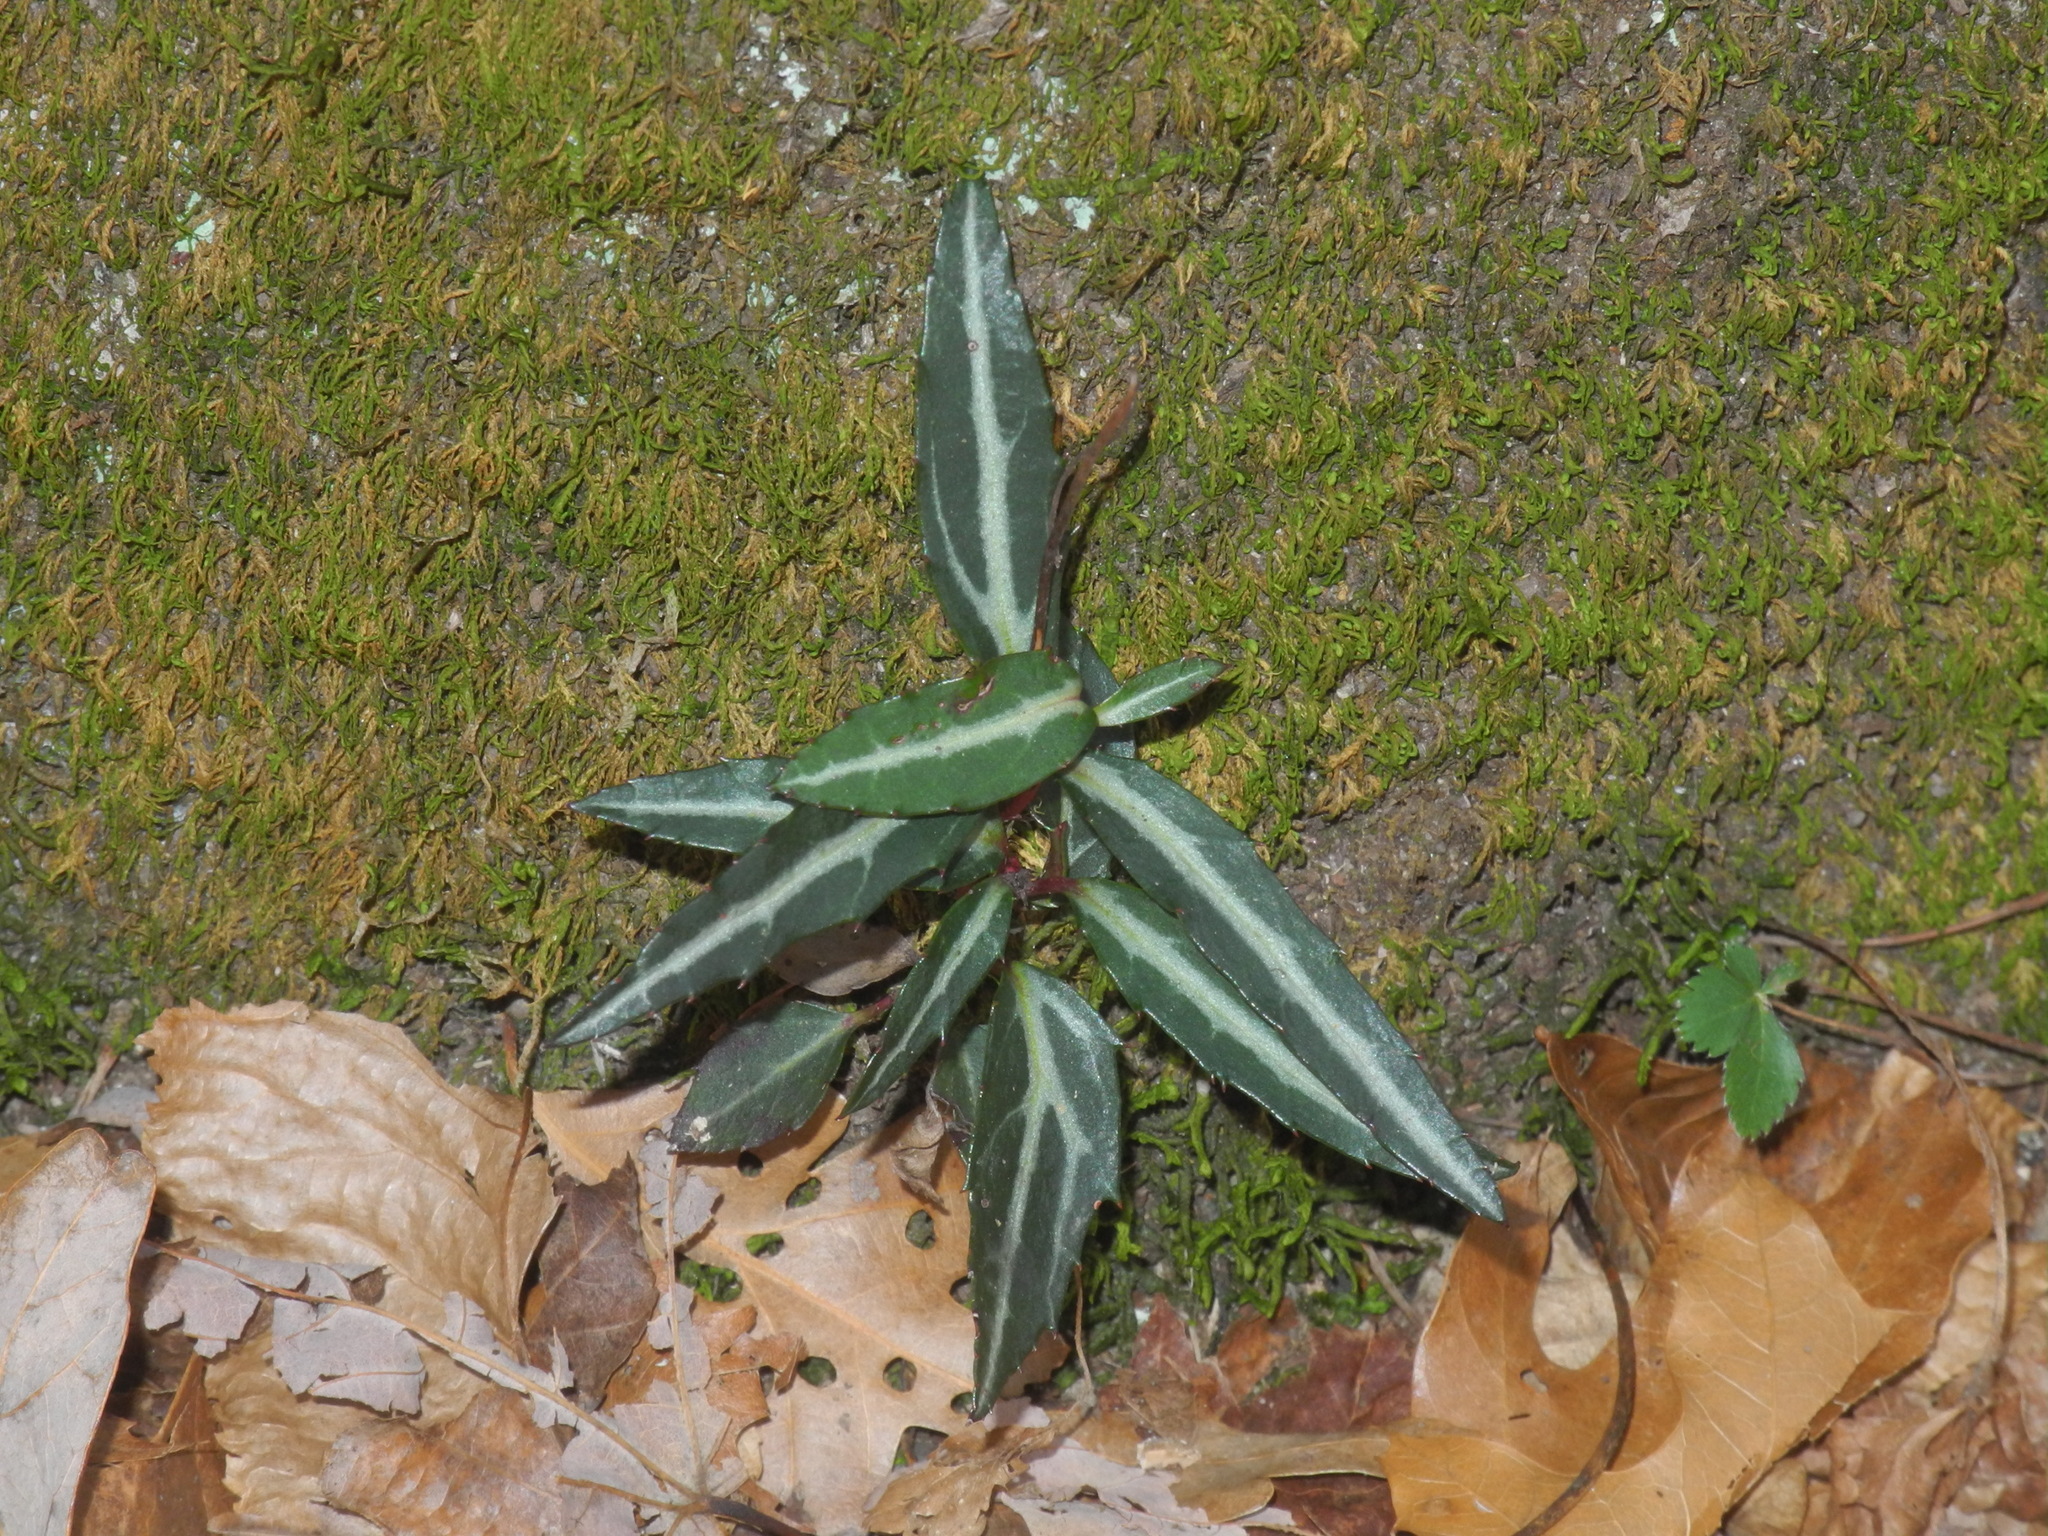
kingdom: Plantae
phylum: Tracheophyta
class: Magnoliopsida
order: Ericales
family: Ericaceae
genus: Chimaphila
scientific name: Chimaphila maculata
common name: Spotted pipsissewa
